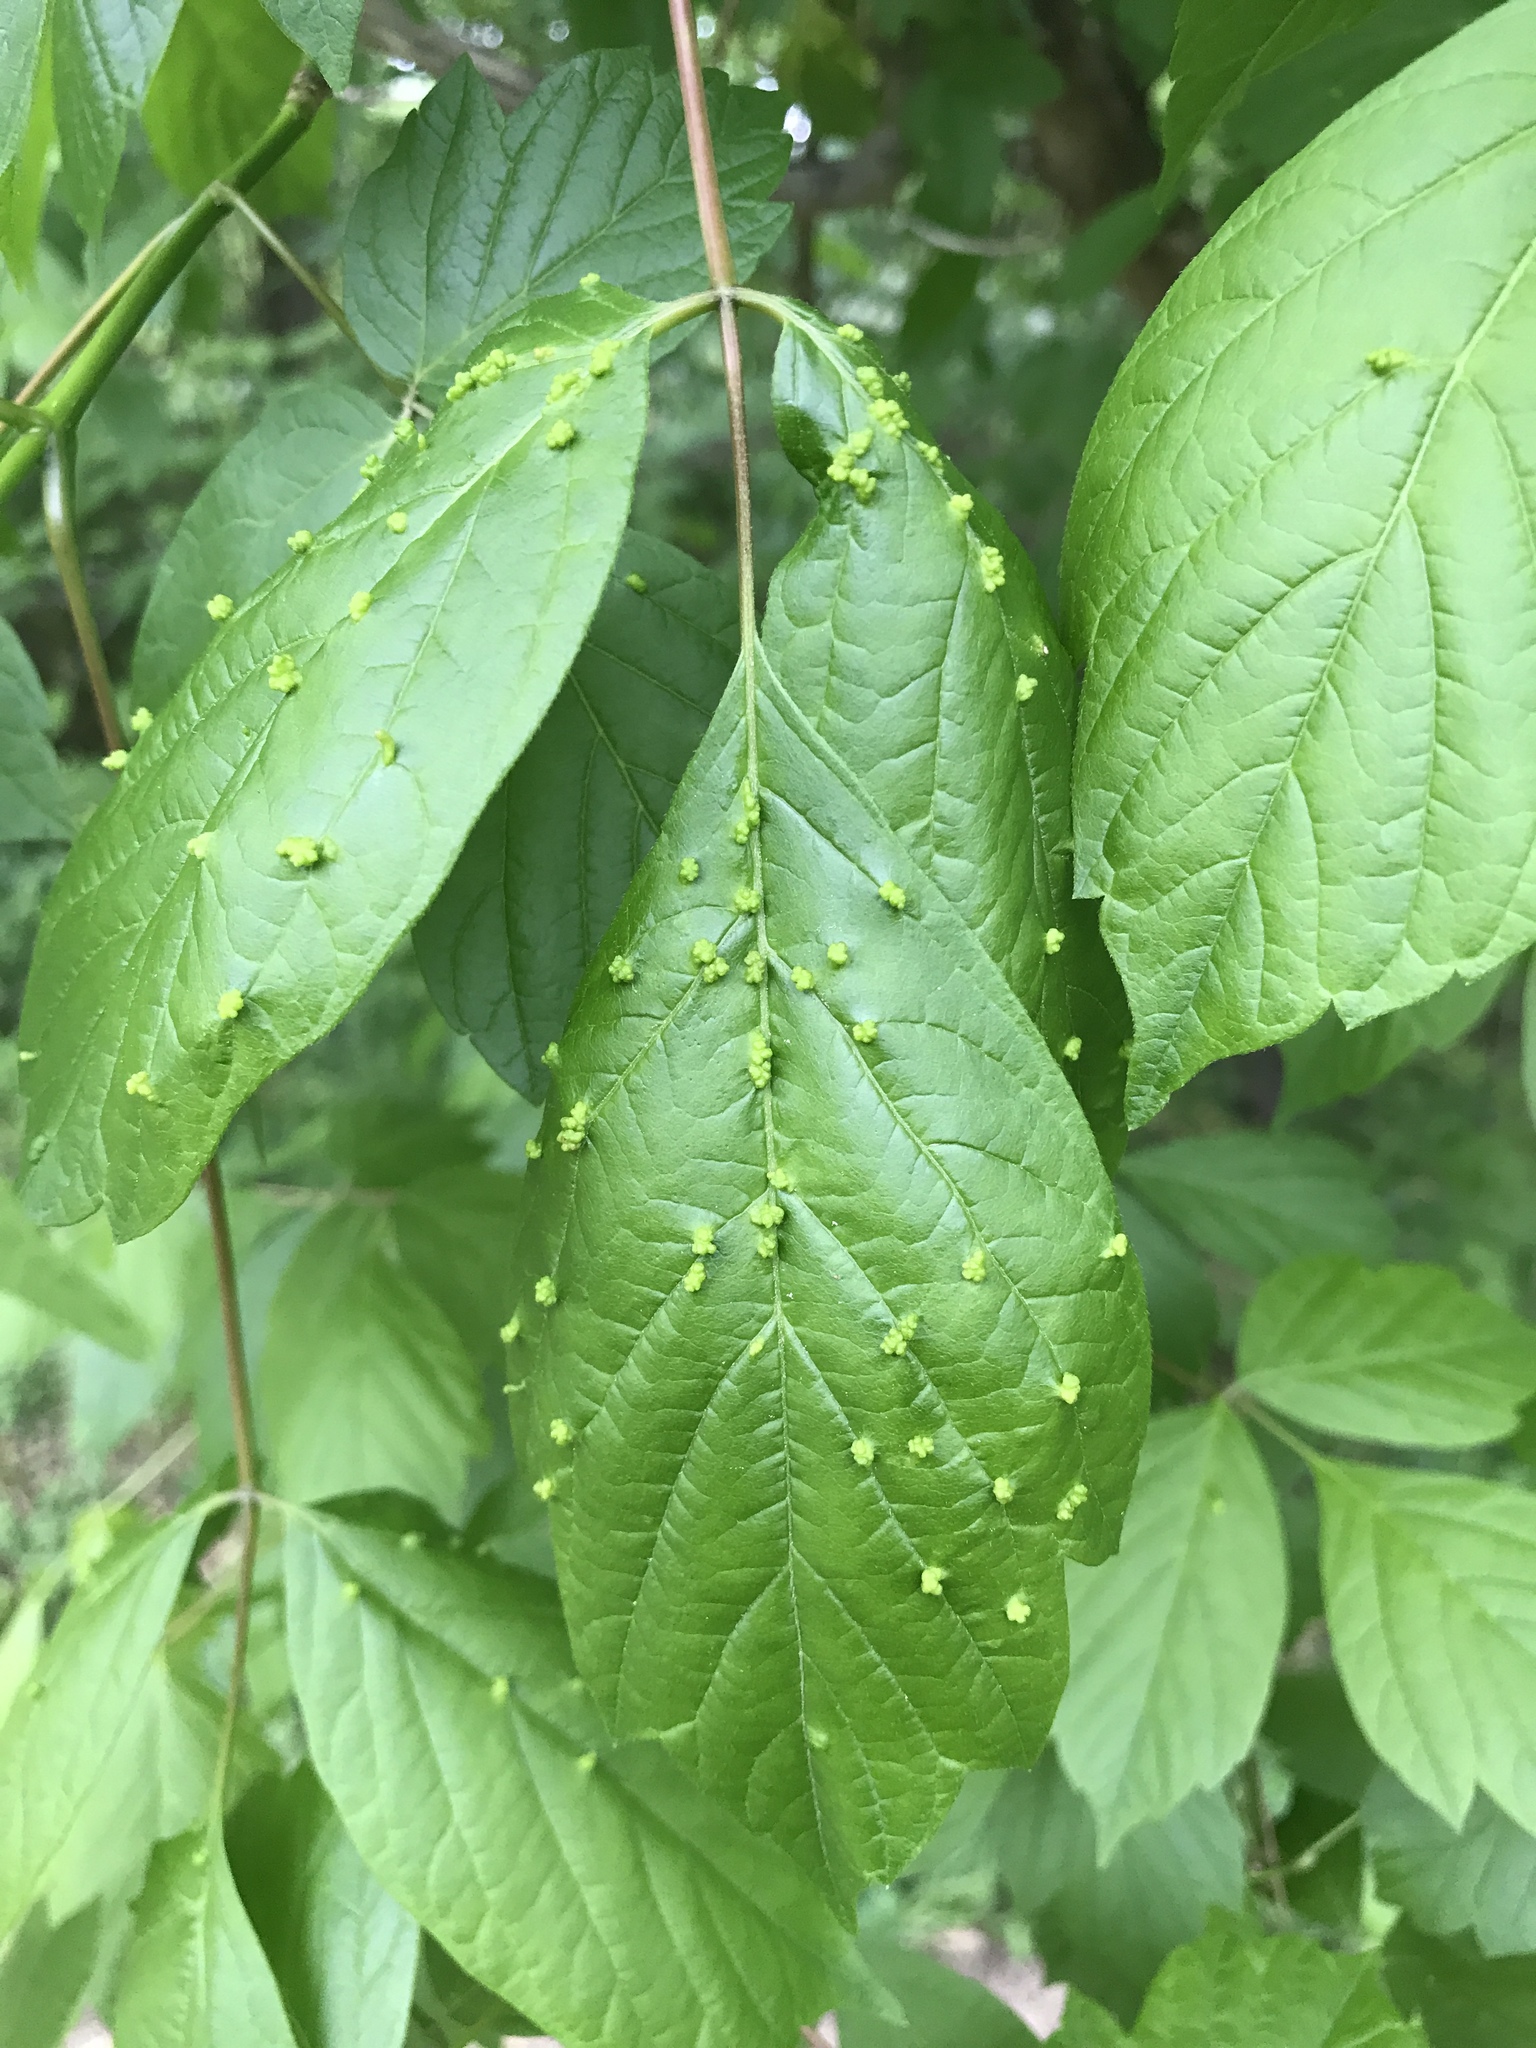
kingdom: Animalia
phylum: Arthropoda
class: Arachnida
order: Trombidiformes
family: Eriophyidae
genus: Aceria
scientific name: Aceria
